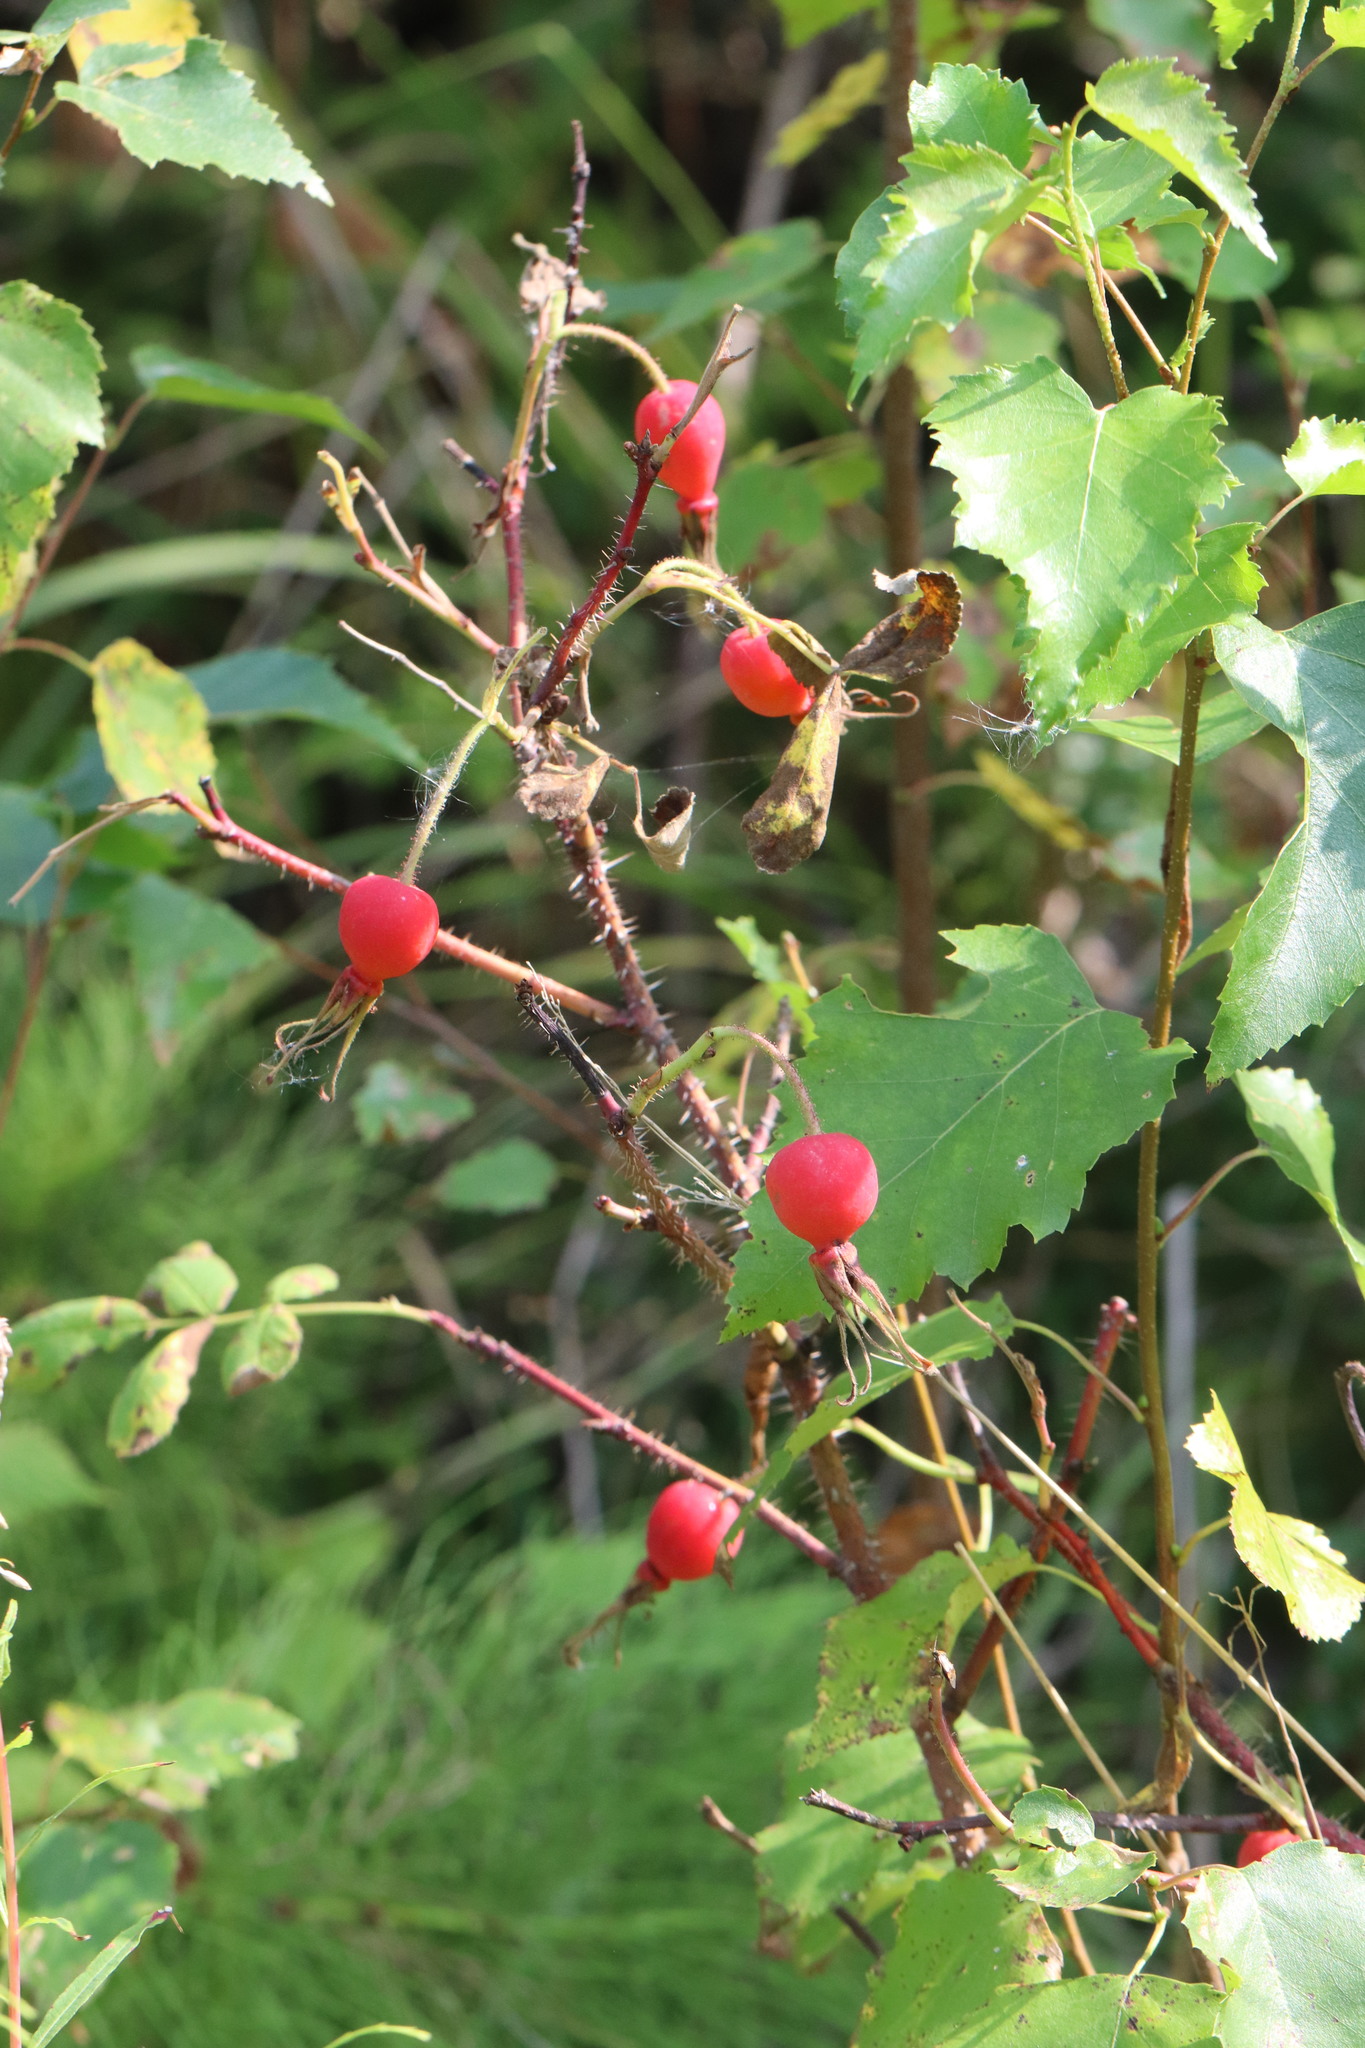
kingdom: Plantae
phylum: Tracheophyta
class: Magnoliopsida
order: Rosales
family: Rosaceae
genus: Rosa
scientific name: Rosa acicularis
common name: Prickly rose
